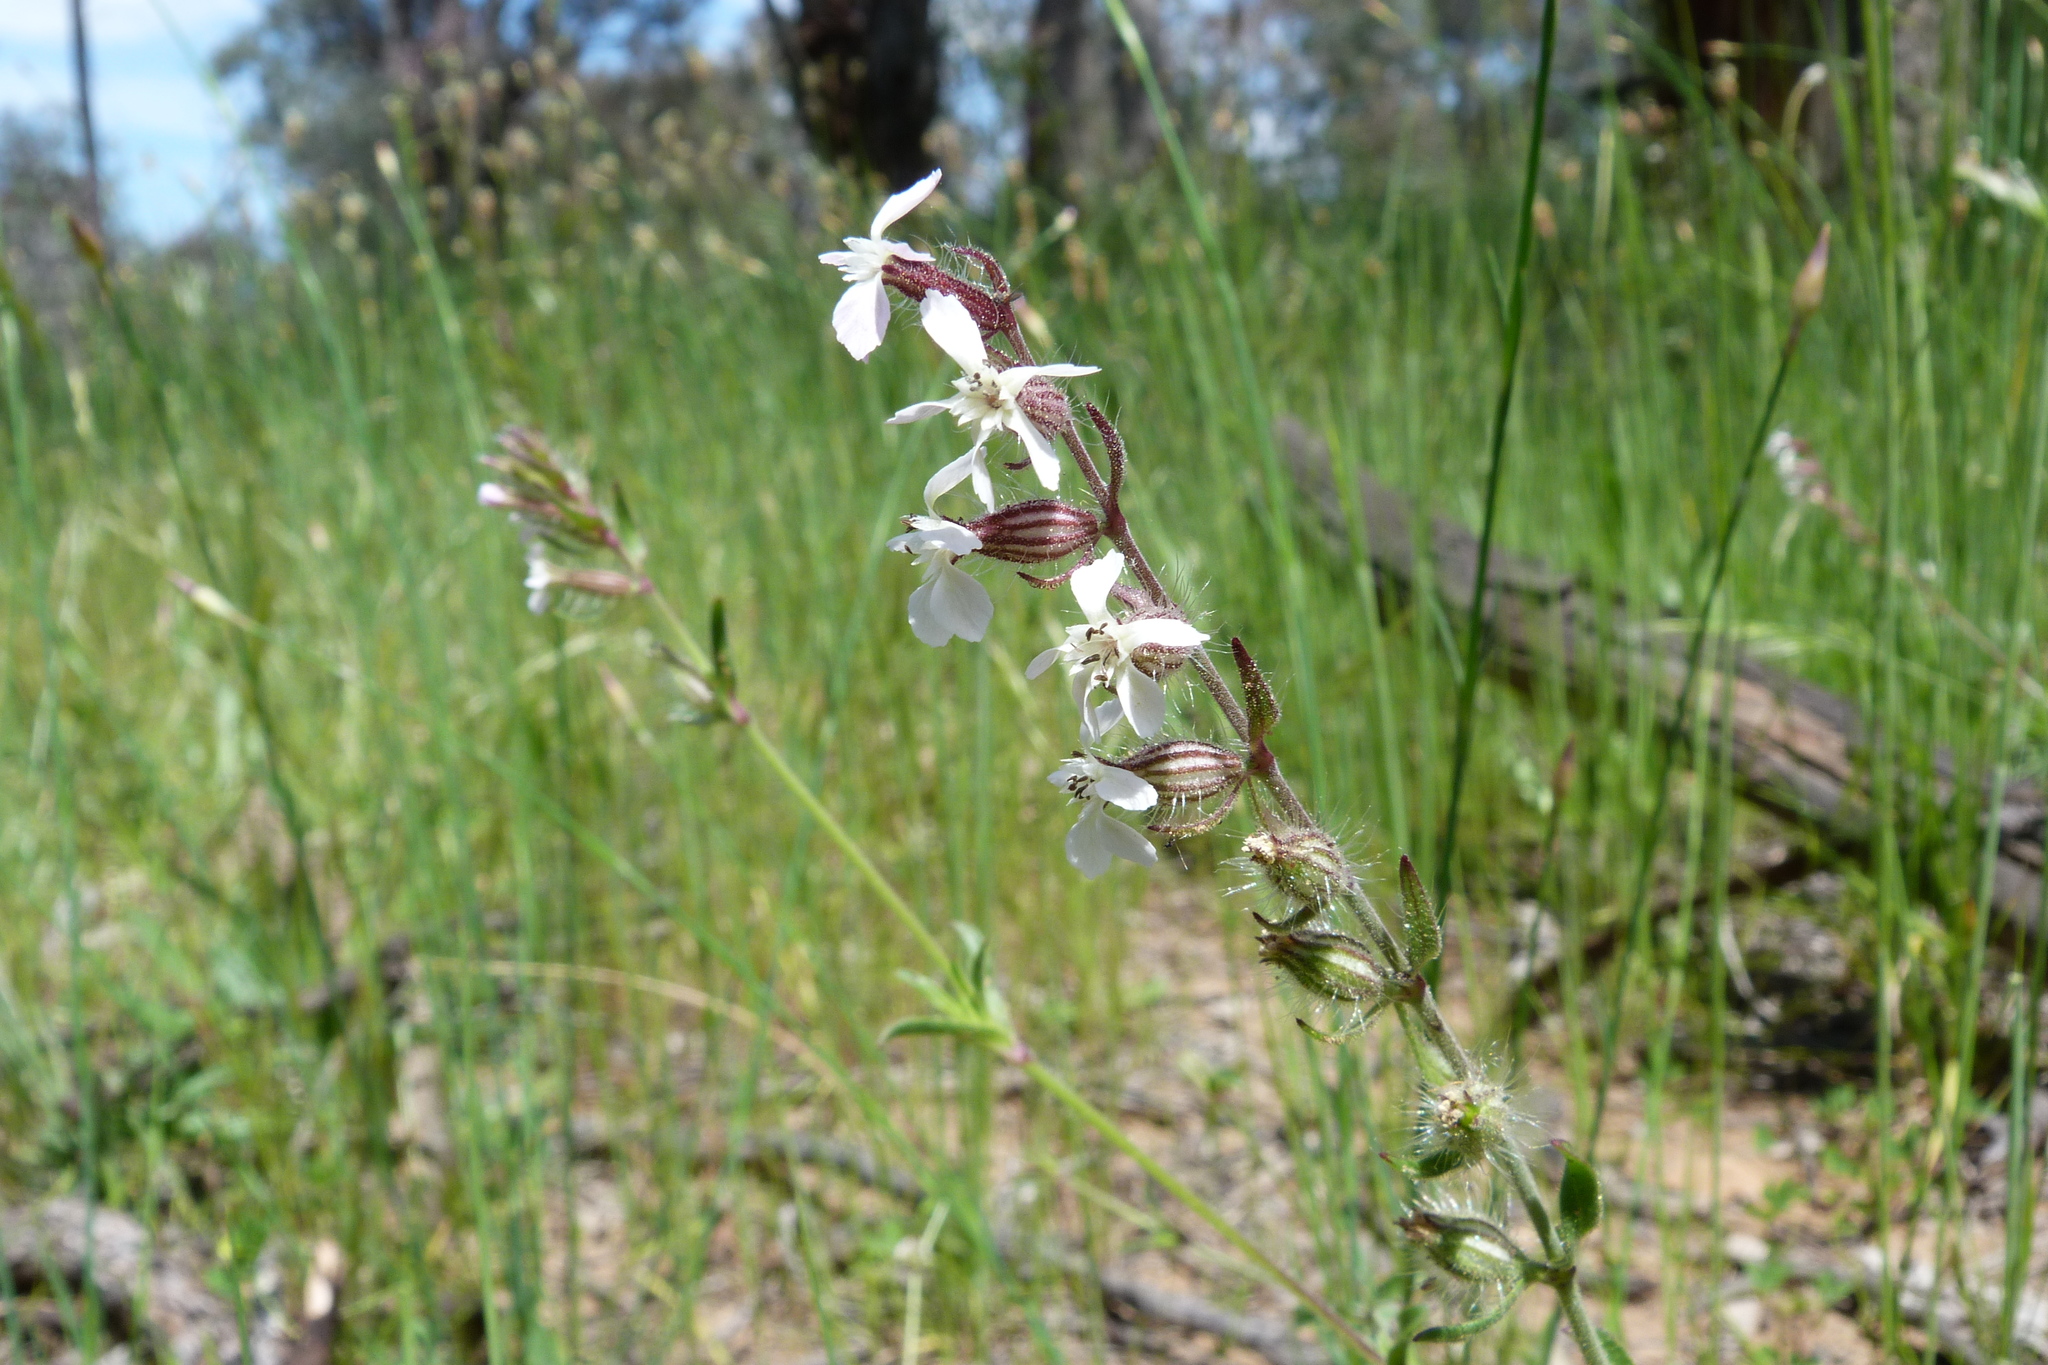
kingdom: Plantae
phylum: Tracheophyta
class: Magnoliopsida
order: Caryophyllales
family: Caryophyllaceae
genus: Silene
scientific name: Silene gallica
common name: Small-flowered catchfly
